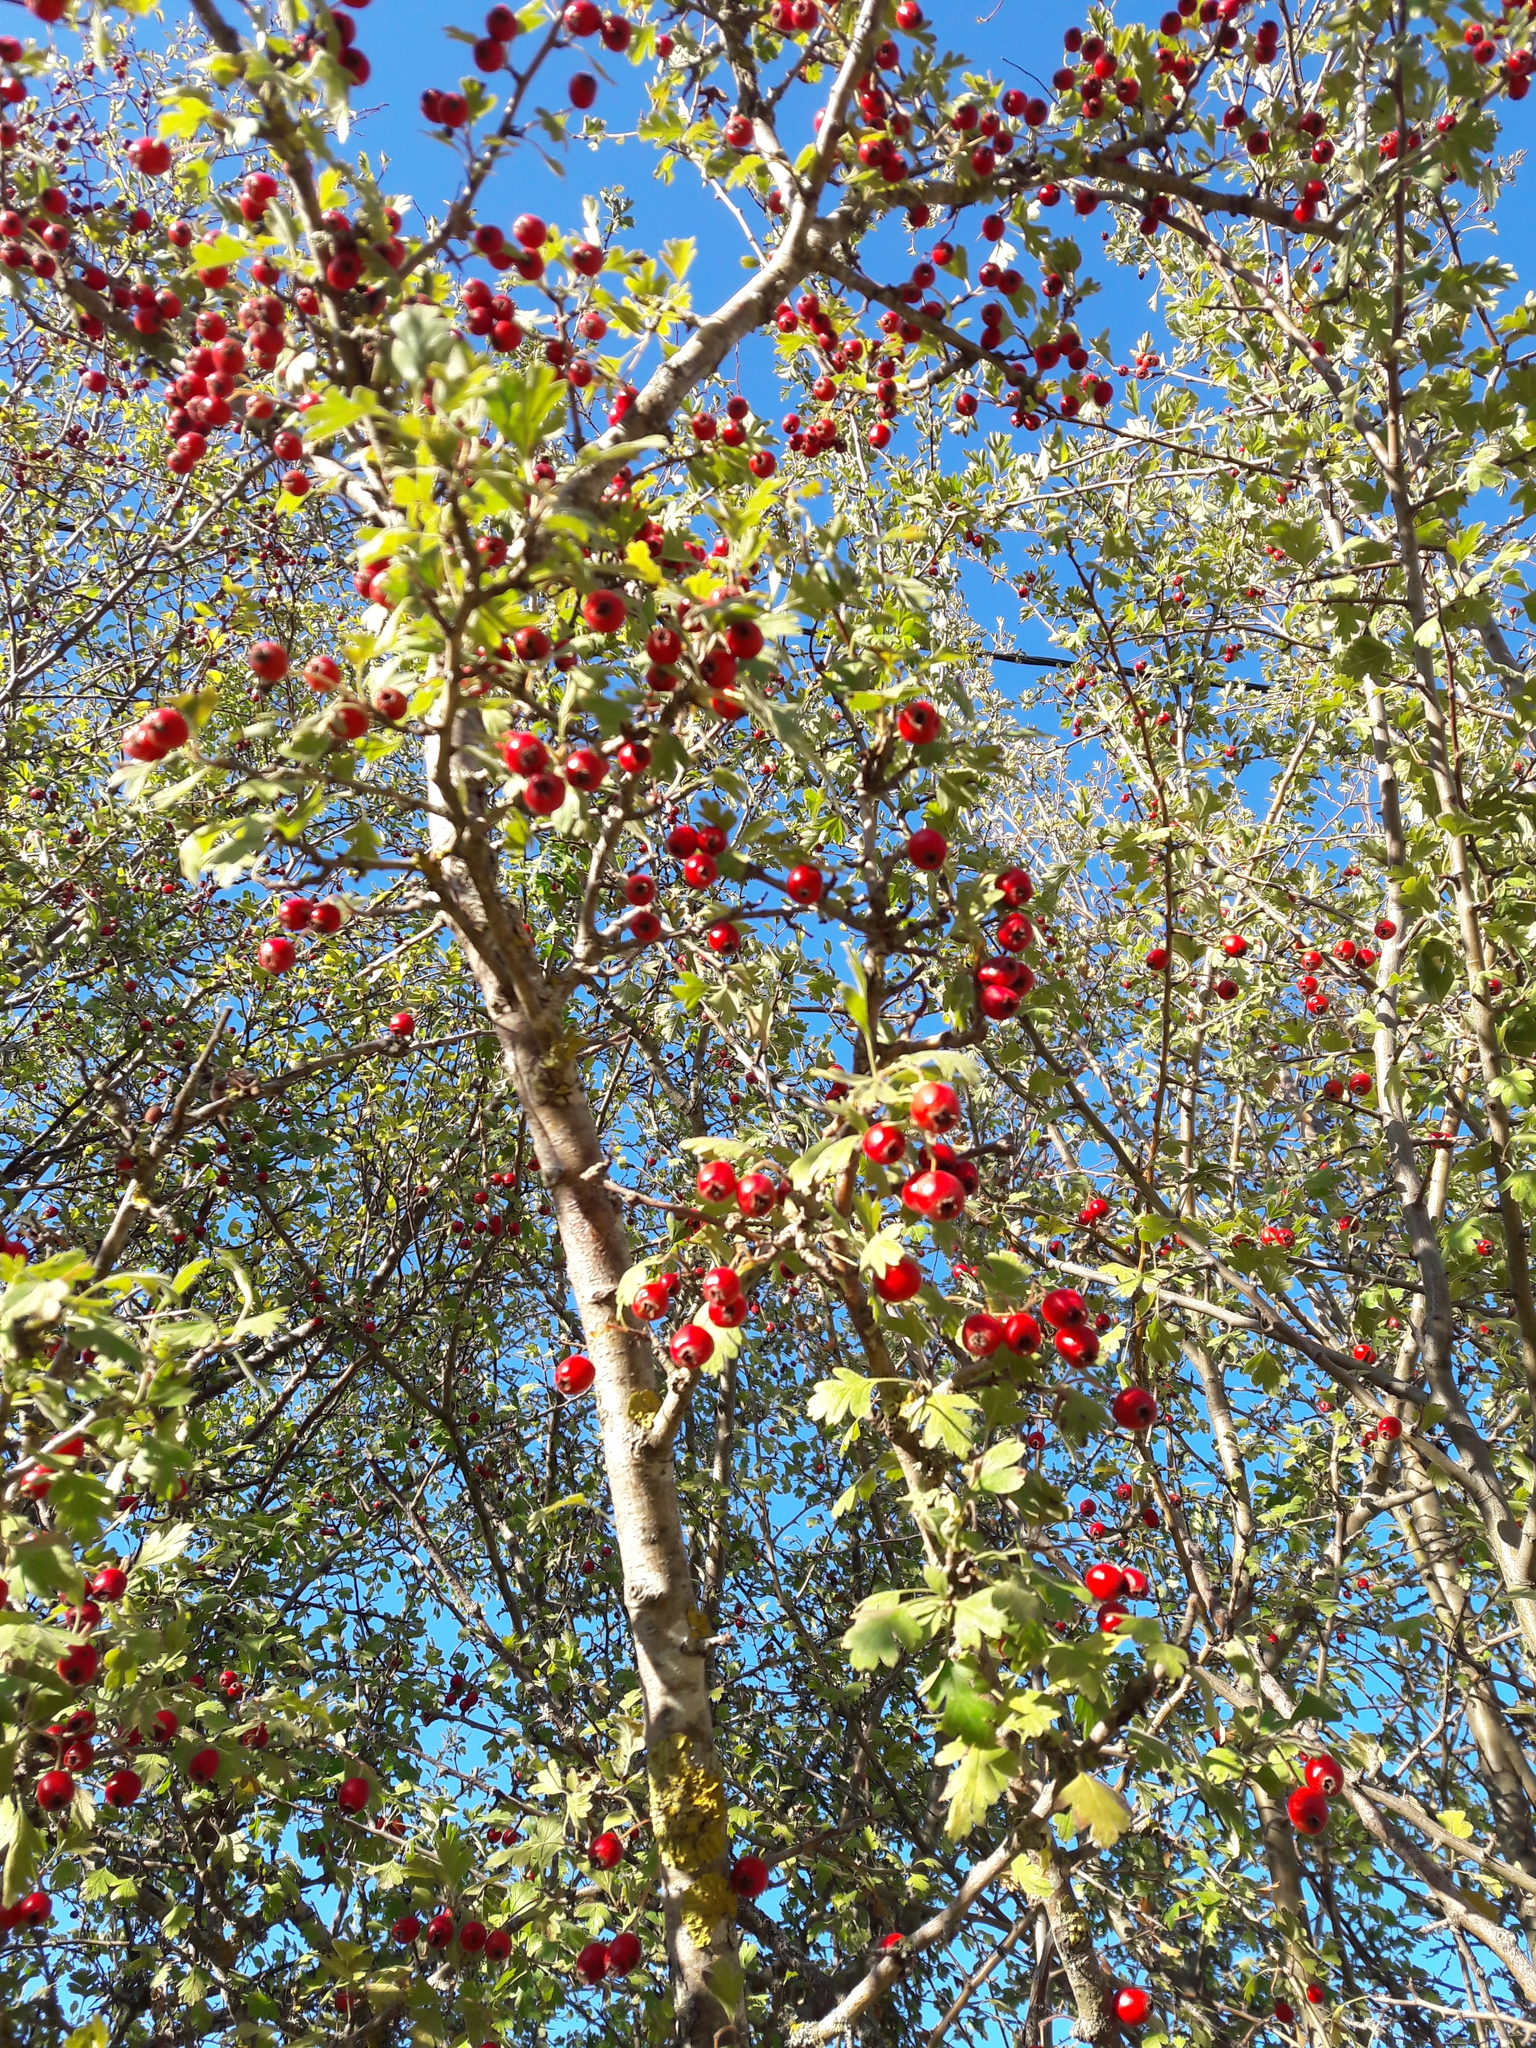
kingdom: Plantae
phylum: Tracheophyta
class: Magnoliopsida
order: Rosales
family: Rosaceae
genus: Crataegus
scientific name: Crataegus heldreichii
